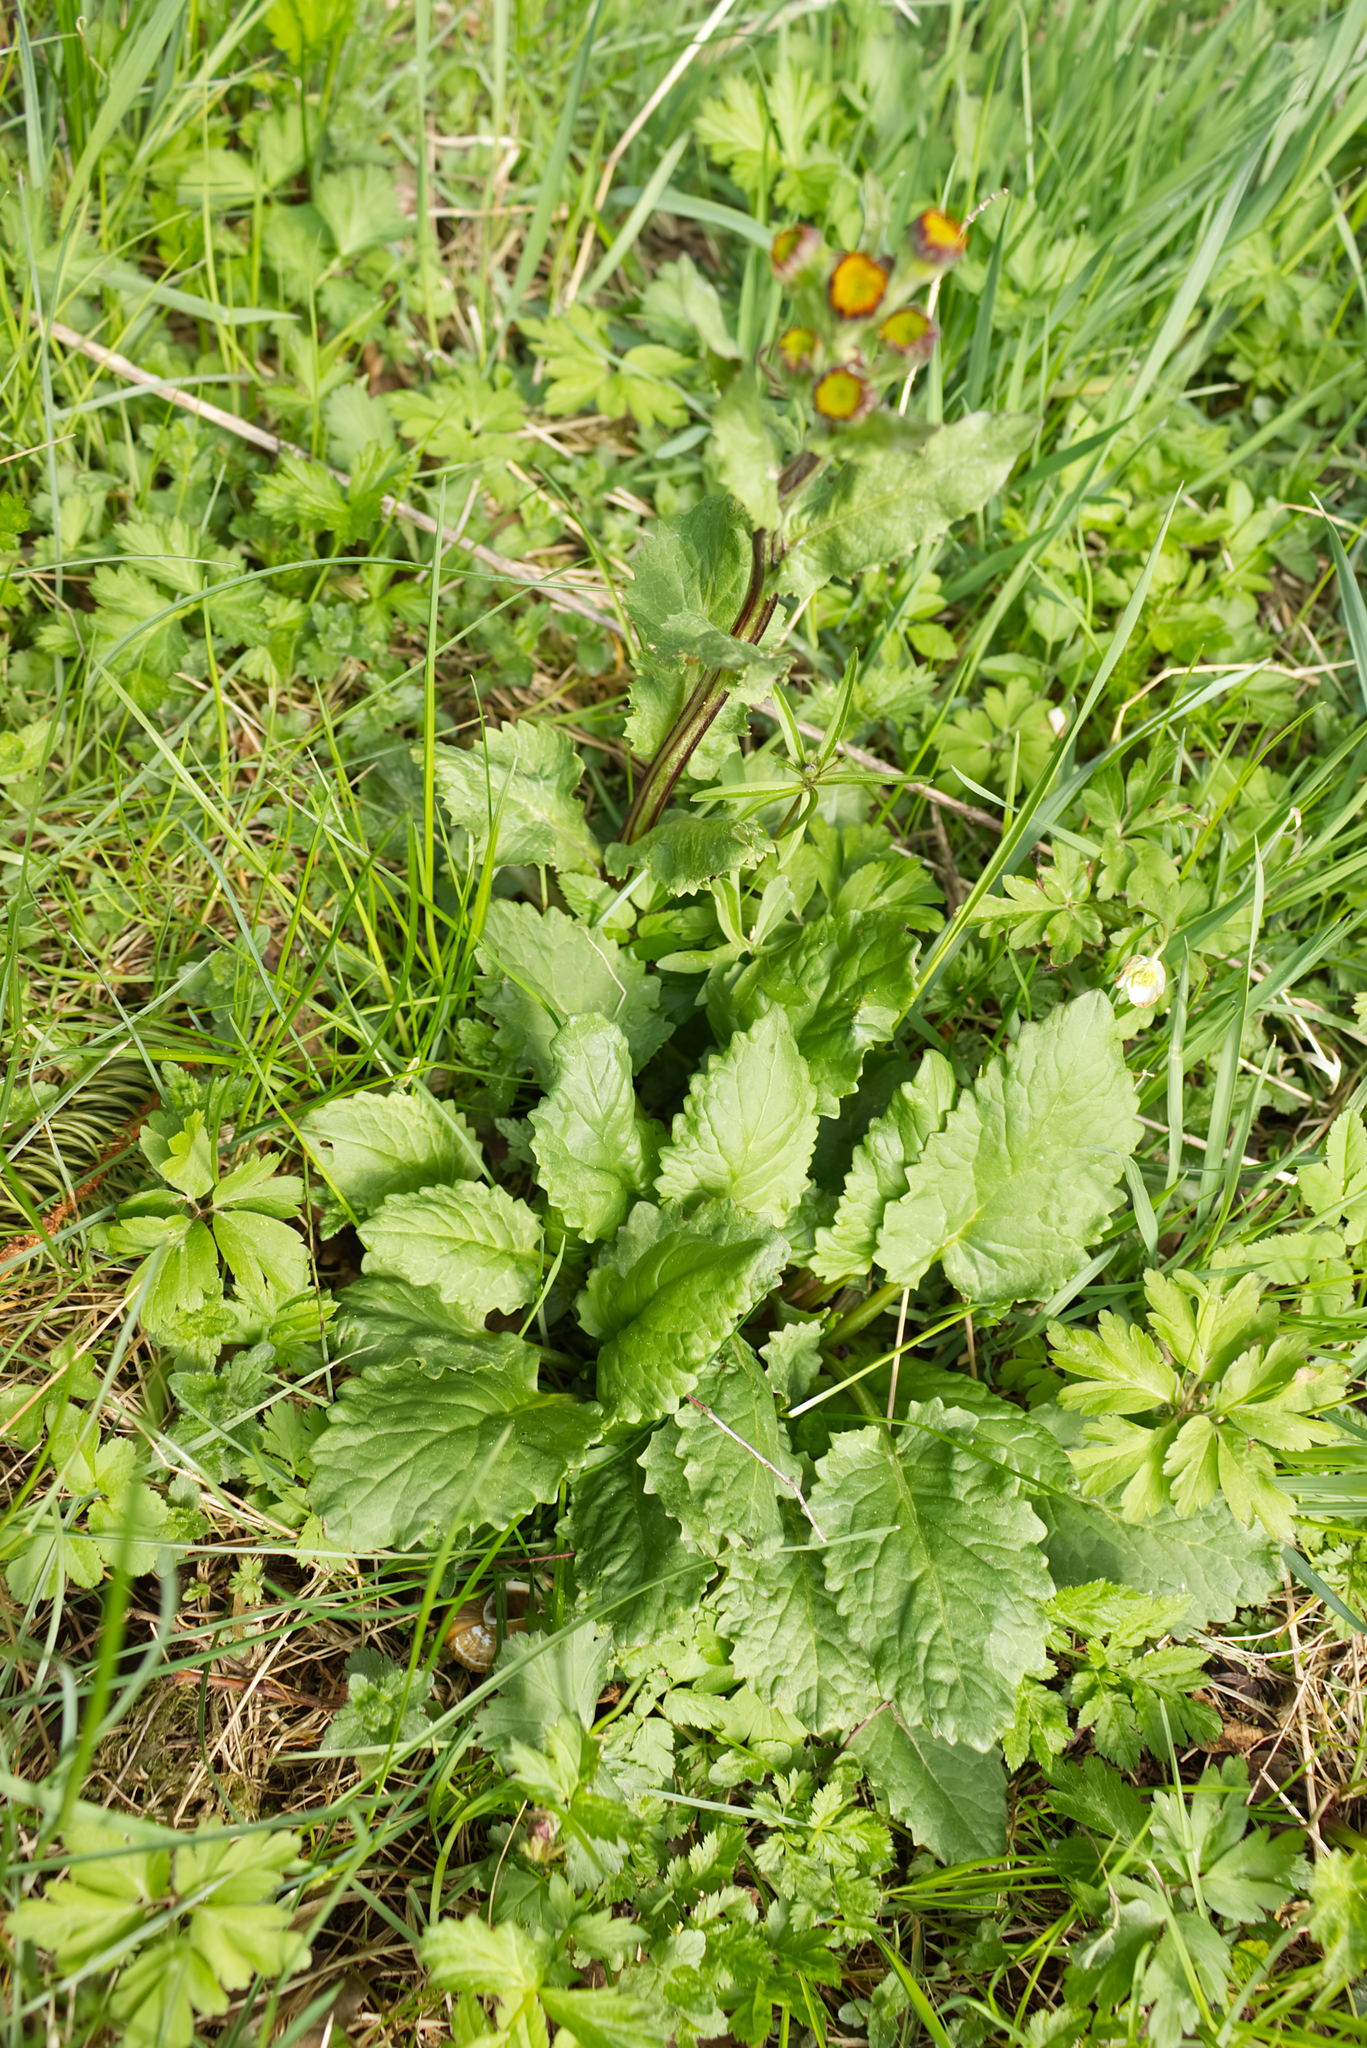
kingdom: Plantae
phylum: Tracheophyta
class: Magnoliopsida
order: Asterales
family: Asteraceae
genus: Tephroseris
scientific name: Tephroseris crispa
